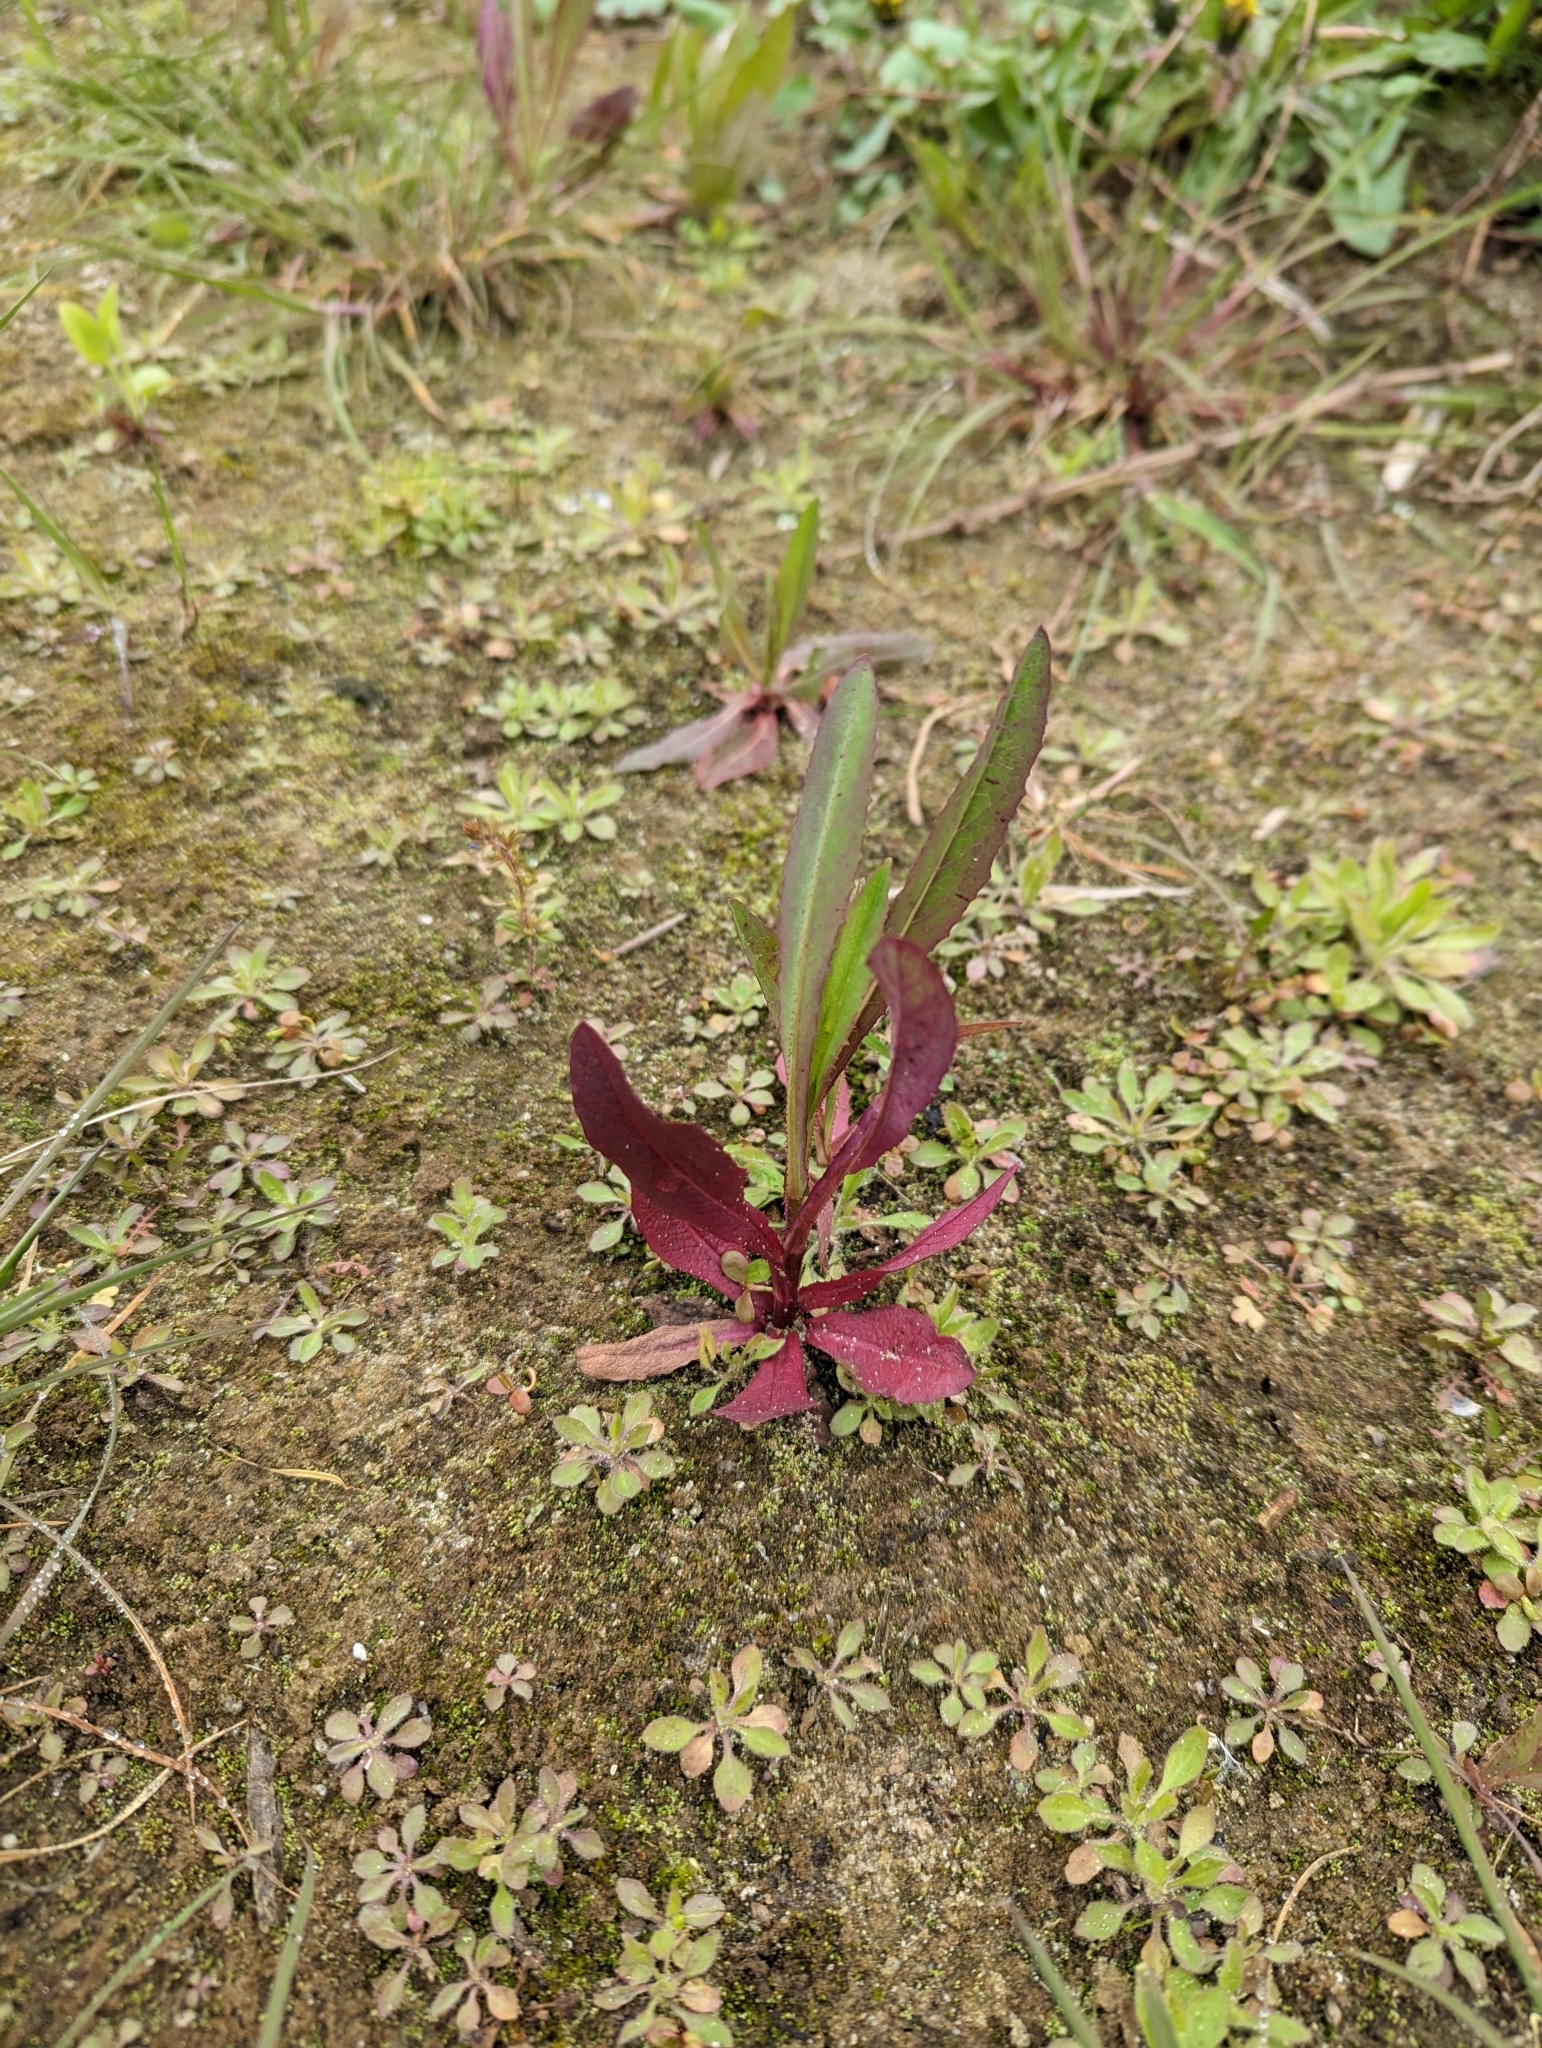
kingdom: Plantae
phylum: Tracheophyta
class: Magnoliopsida
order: Asterales
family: Asteraceae
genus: Lactuca
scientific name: Lactuca serriola
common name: Prickly lettuce
